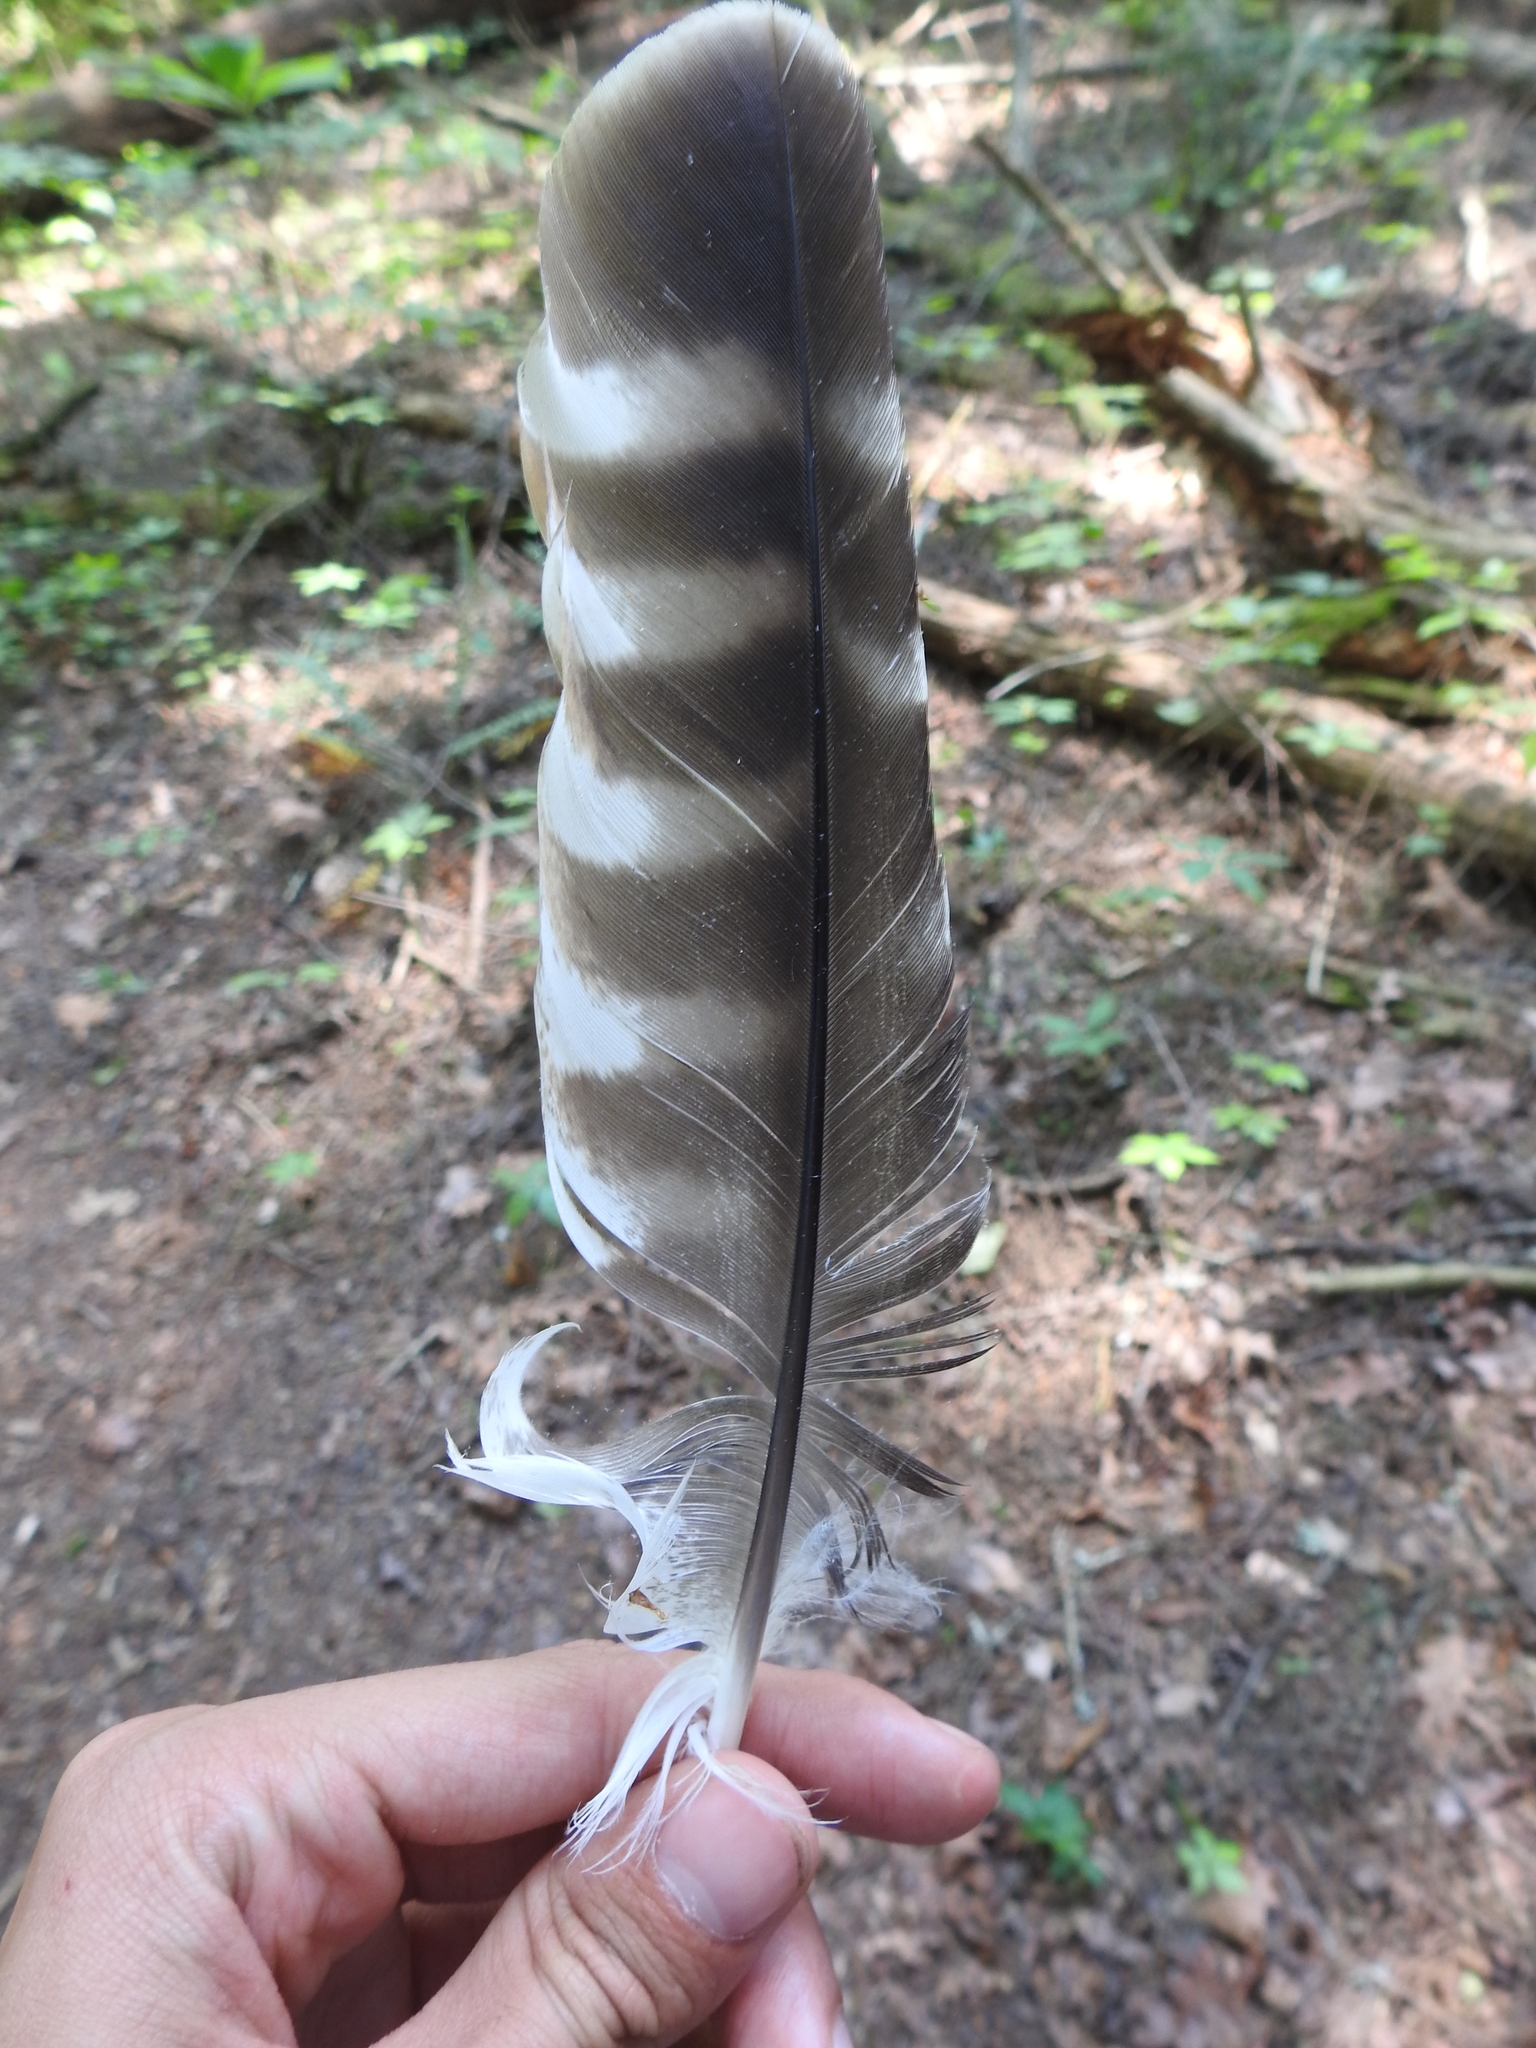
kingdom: Animalia
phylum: Chordata
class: Aves
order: Accipitriformes
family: Accipitridae
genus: Buteo
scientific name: Buteo lineatus
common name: Red-shouldered hawk
